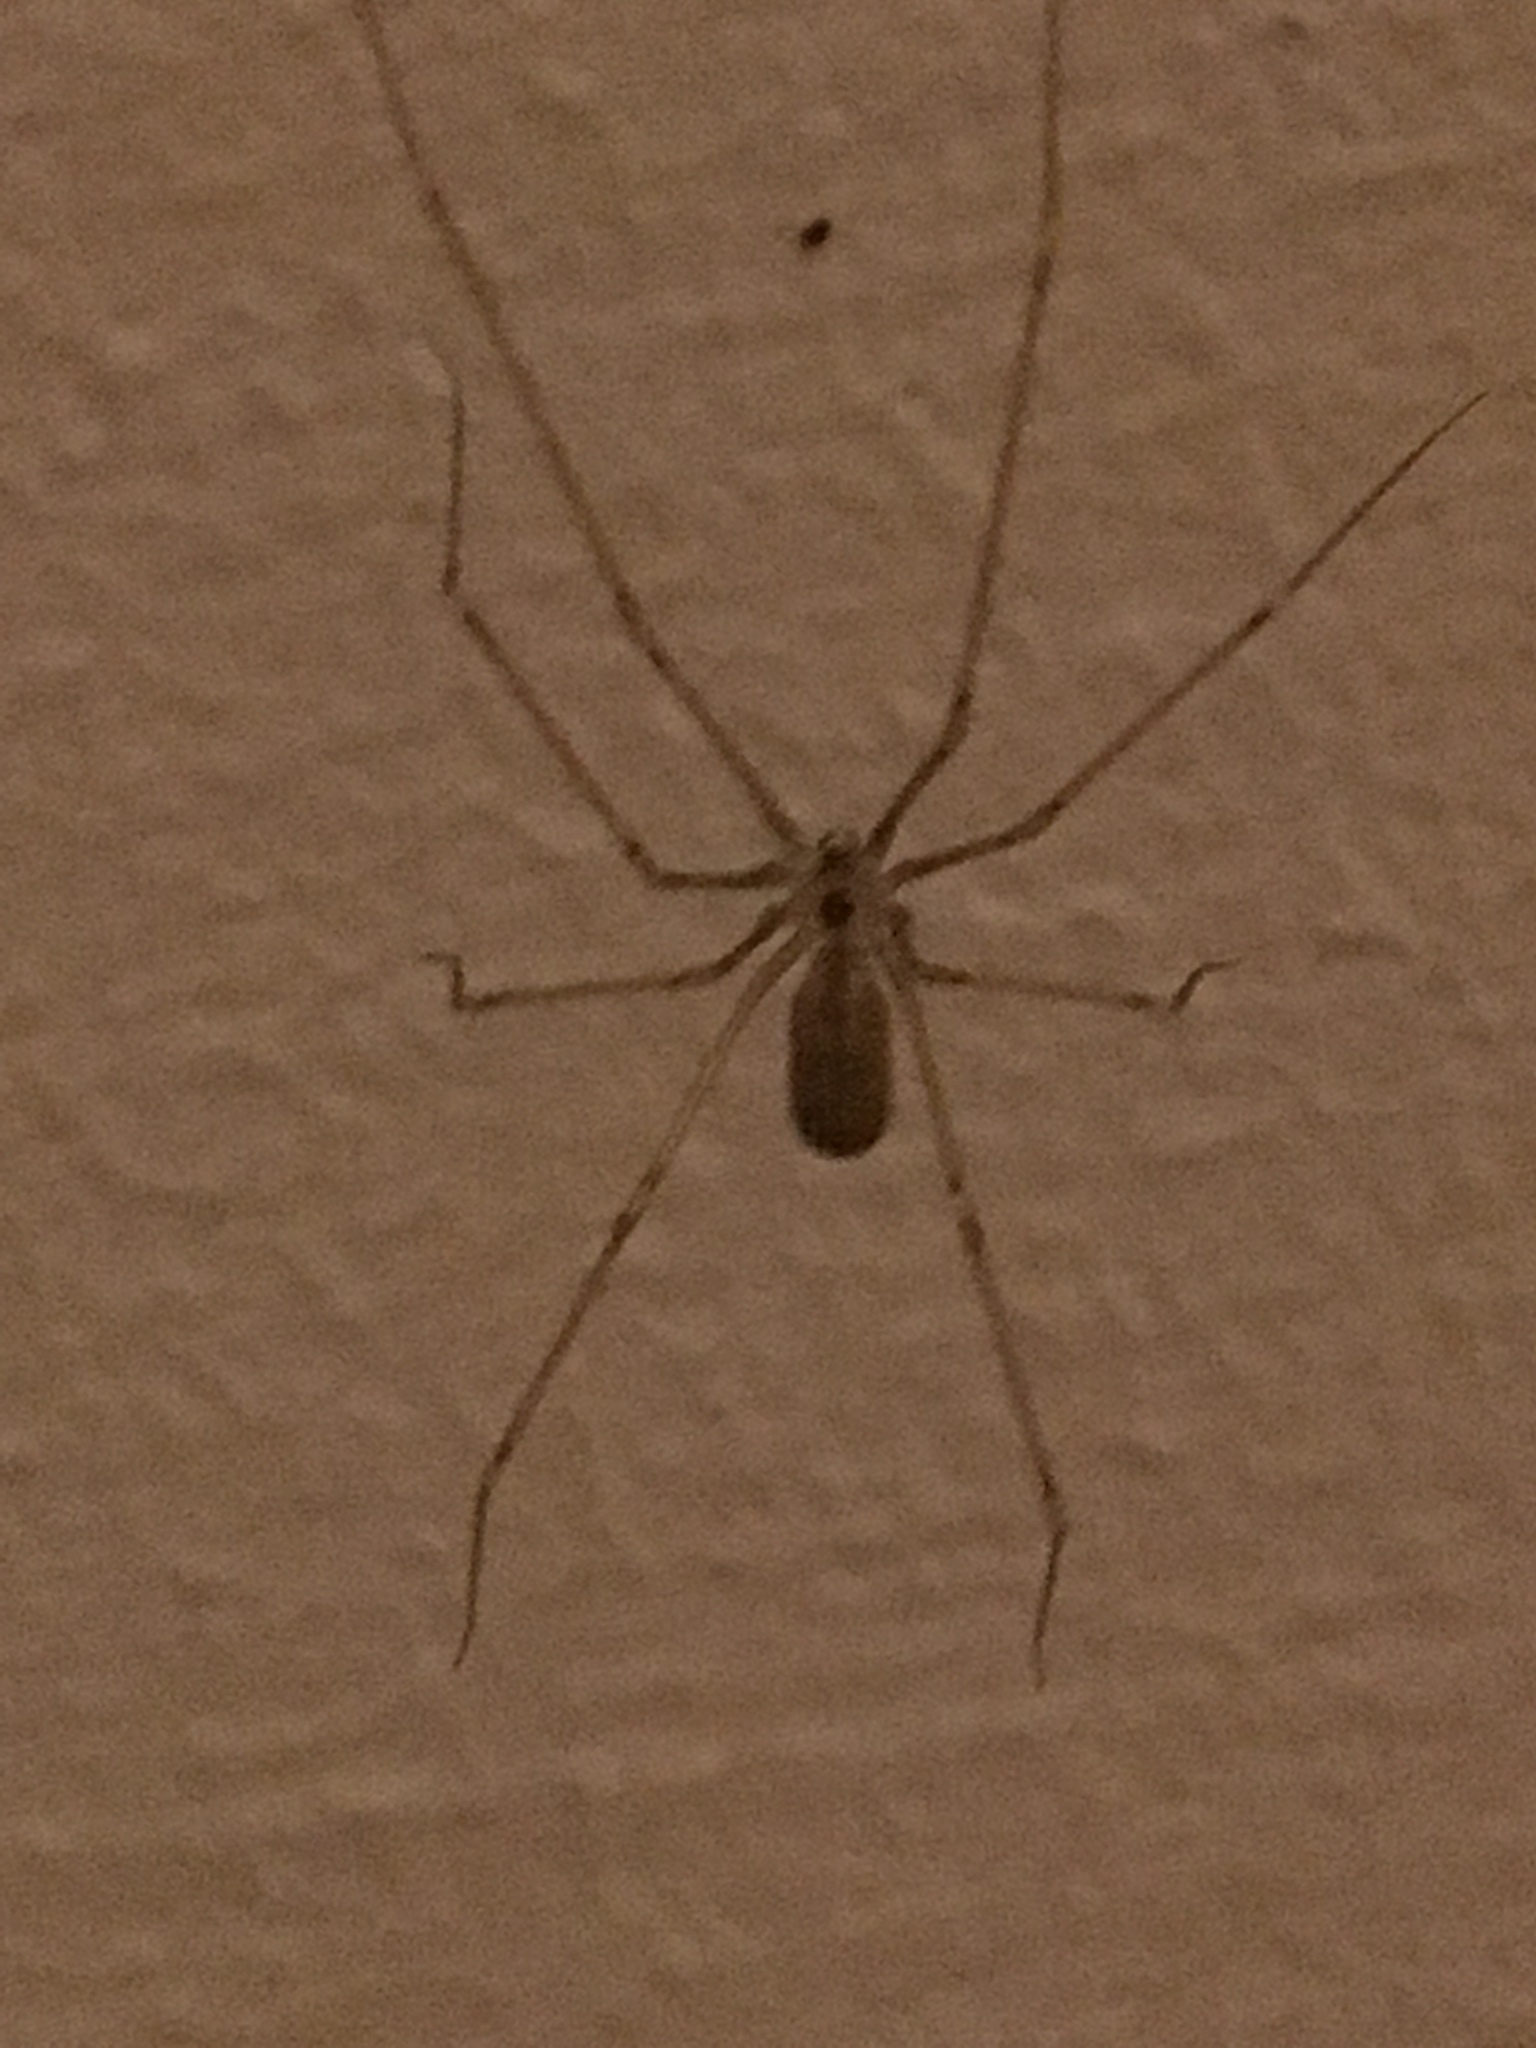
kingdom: Animalia
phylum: Arthropoda
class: Arachnida
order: Araneae
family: Pholcidae
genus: Pholcus
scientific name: Pholcus phalangioides
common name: Longbodied cellar spider
